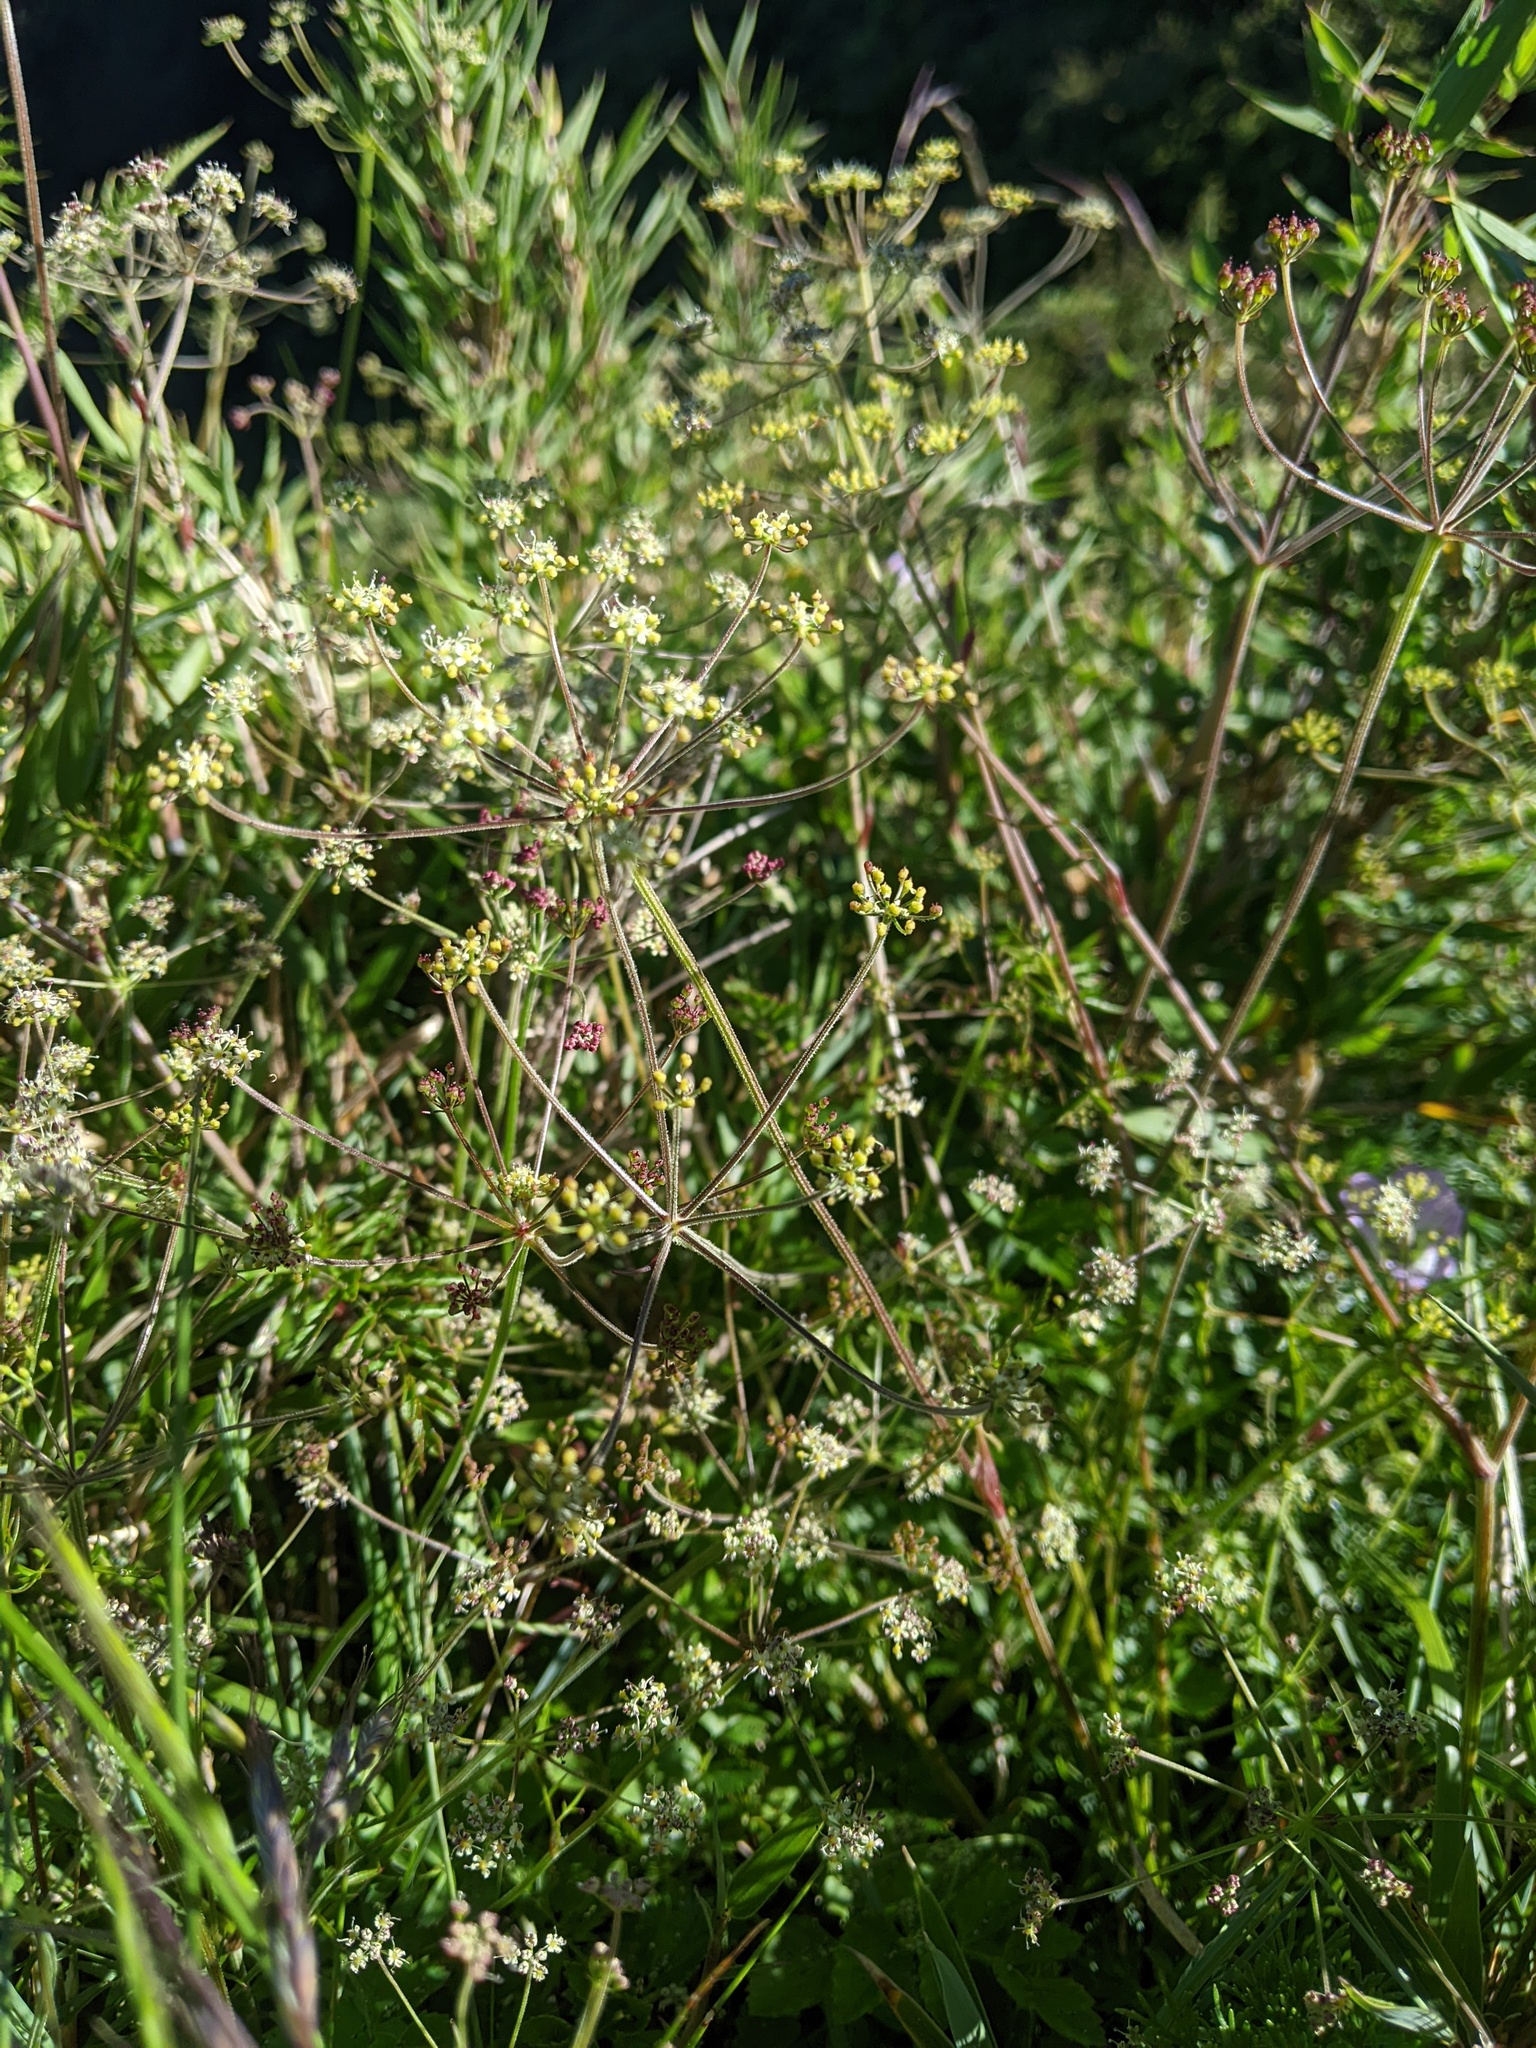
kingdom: Plantae
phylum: Tracheophyta
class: Magnoliopsida
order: Apiales
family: Apiaceae
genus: Pimpinella
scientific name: Pimpinella niitakayamensis
